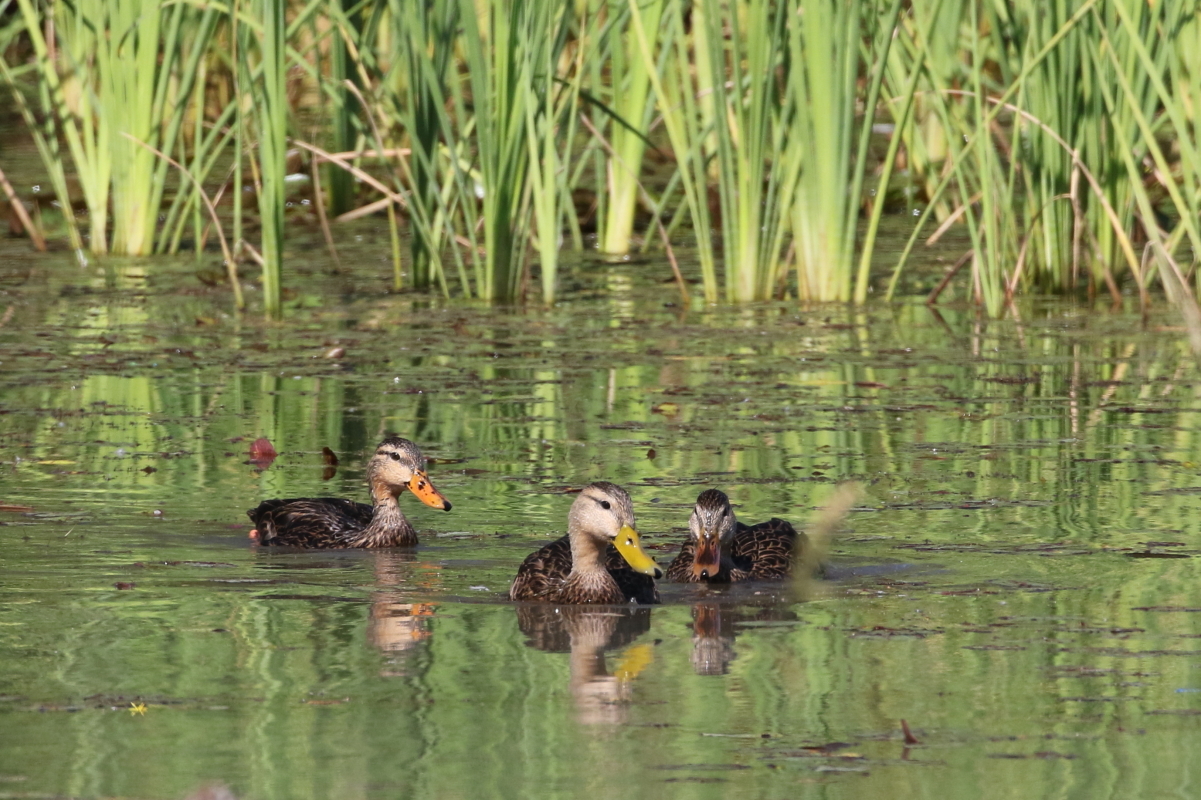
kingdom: Animalia
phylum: Chordata
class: Aves
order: Anseriformes
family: Anatidae
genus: Anas
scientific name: Anas fulvigula
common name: Mottled duck
